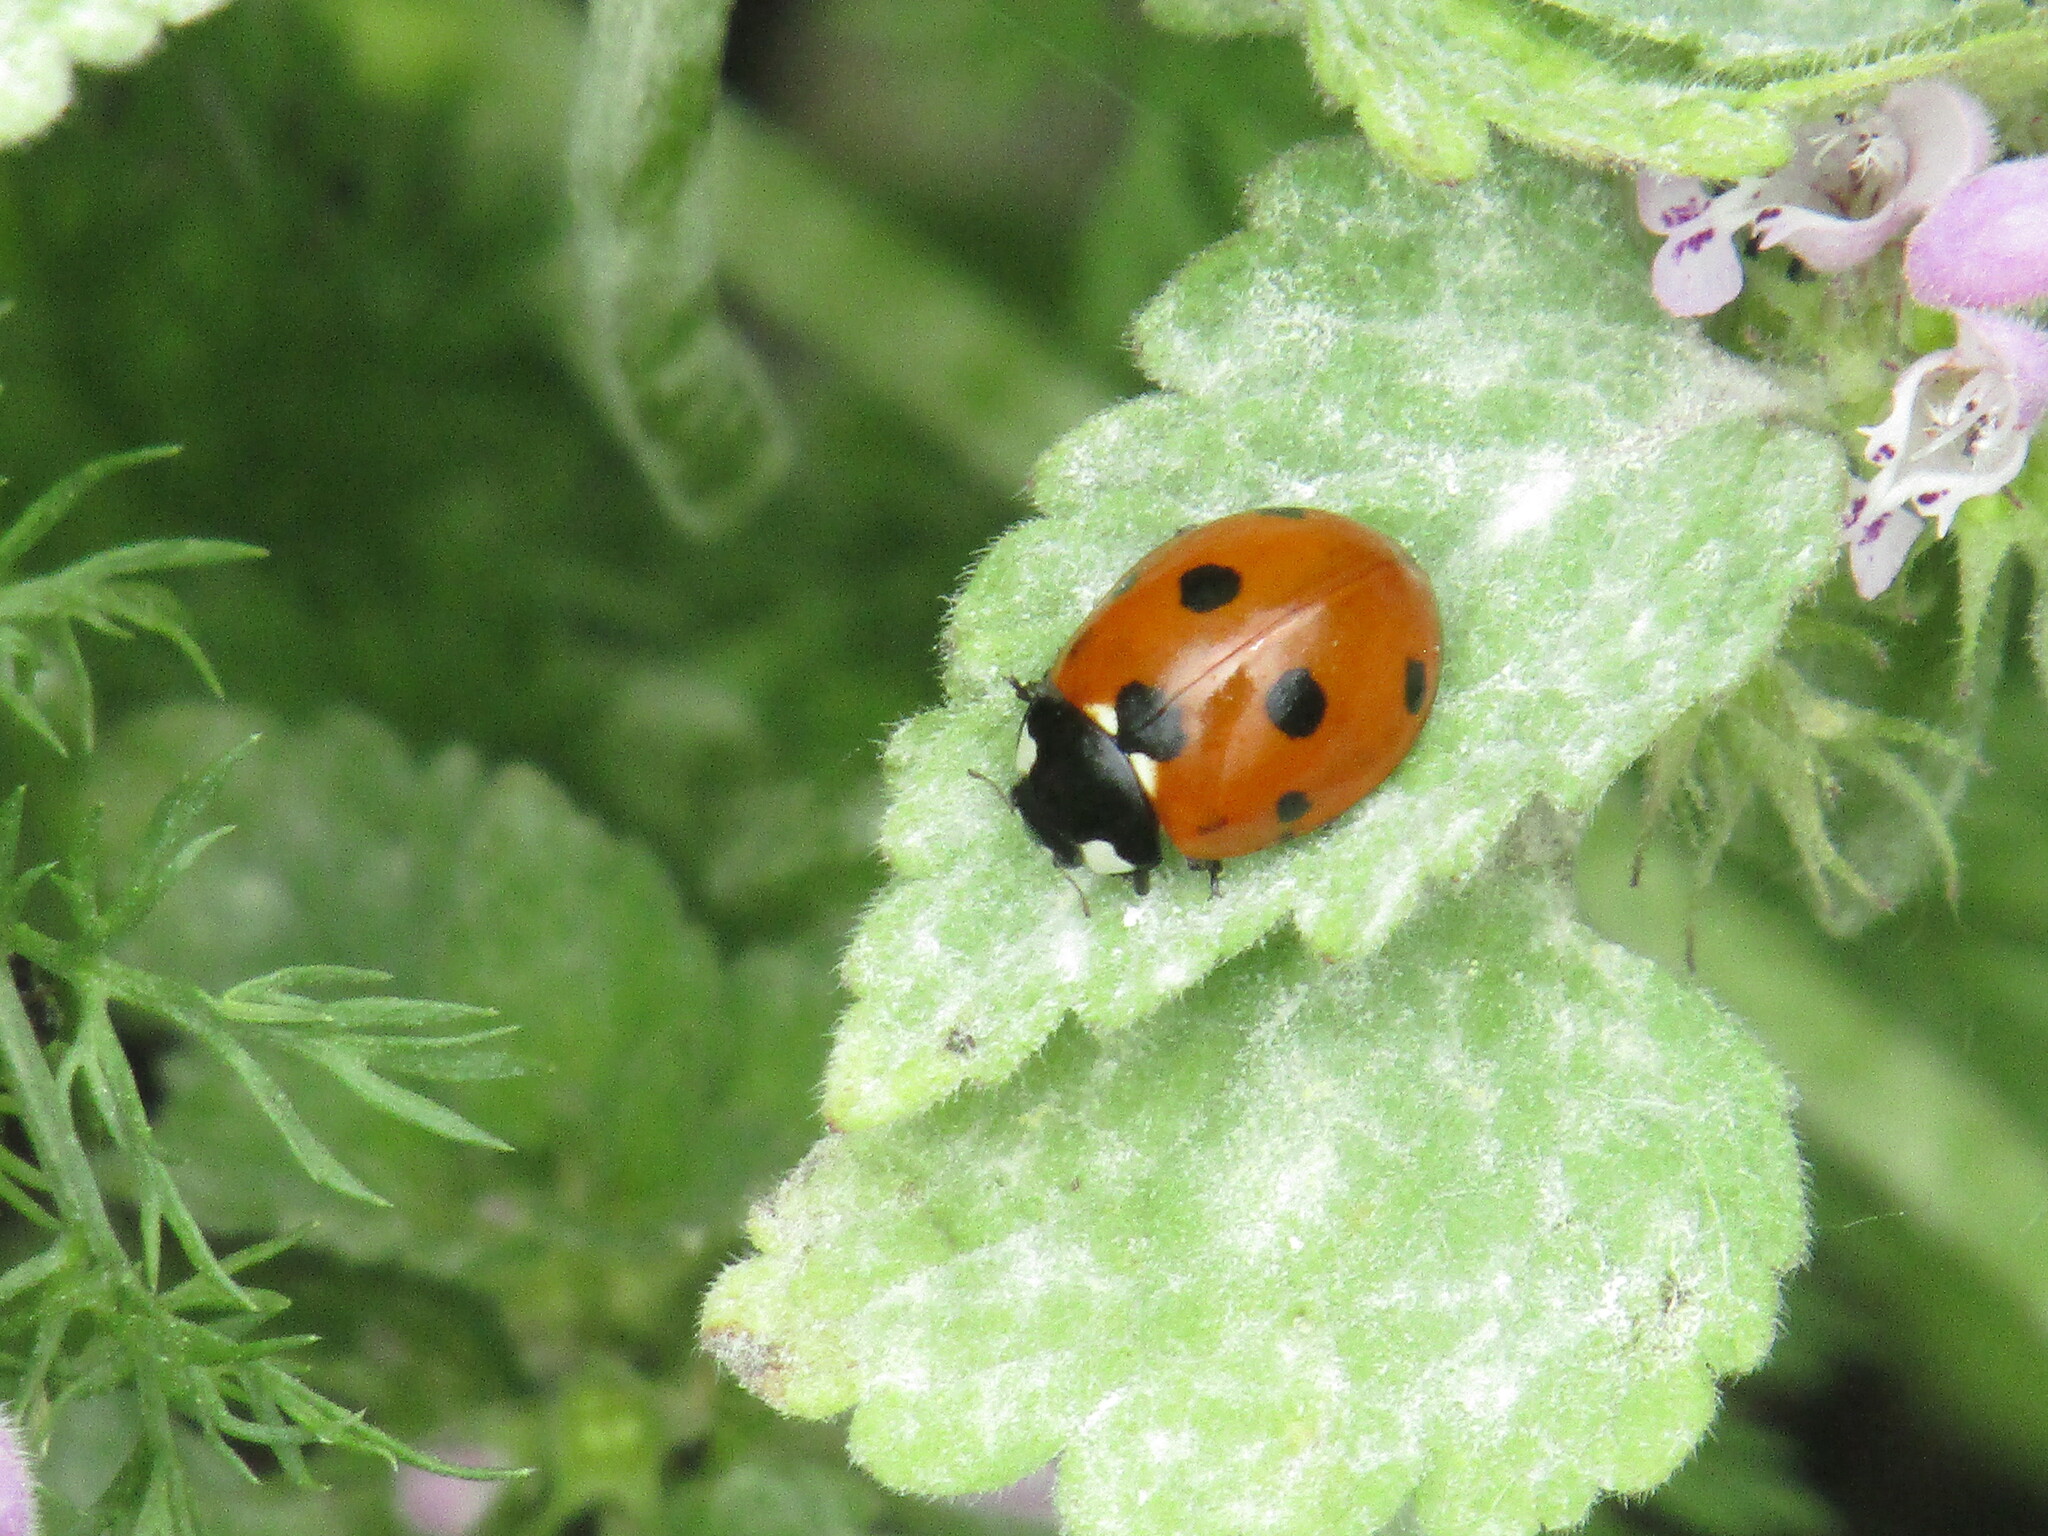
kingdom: Animalia
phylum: Arthropoda
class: Insecta
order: Coleoptera
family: Coccinellidae
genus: Coccinella
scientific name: Coccinella septempunctata
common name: Sevenspotted lady beetle
